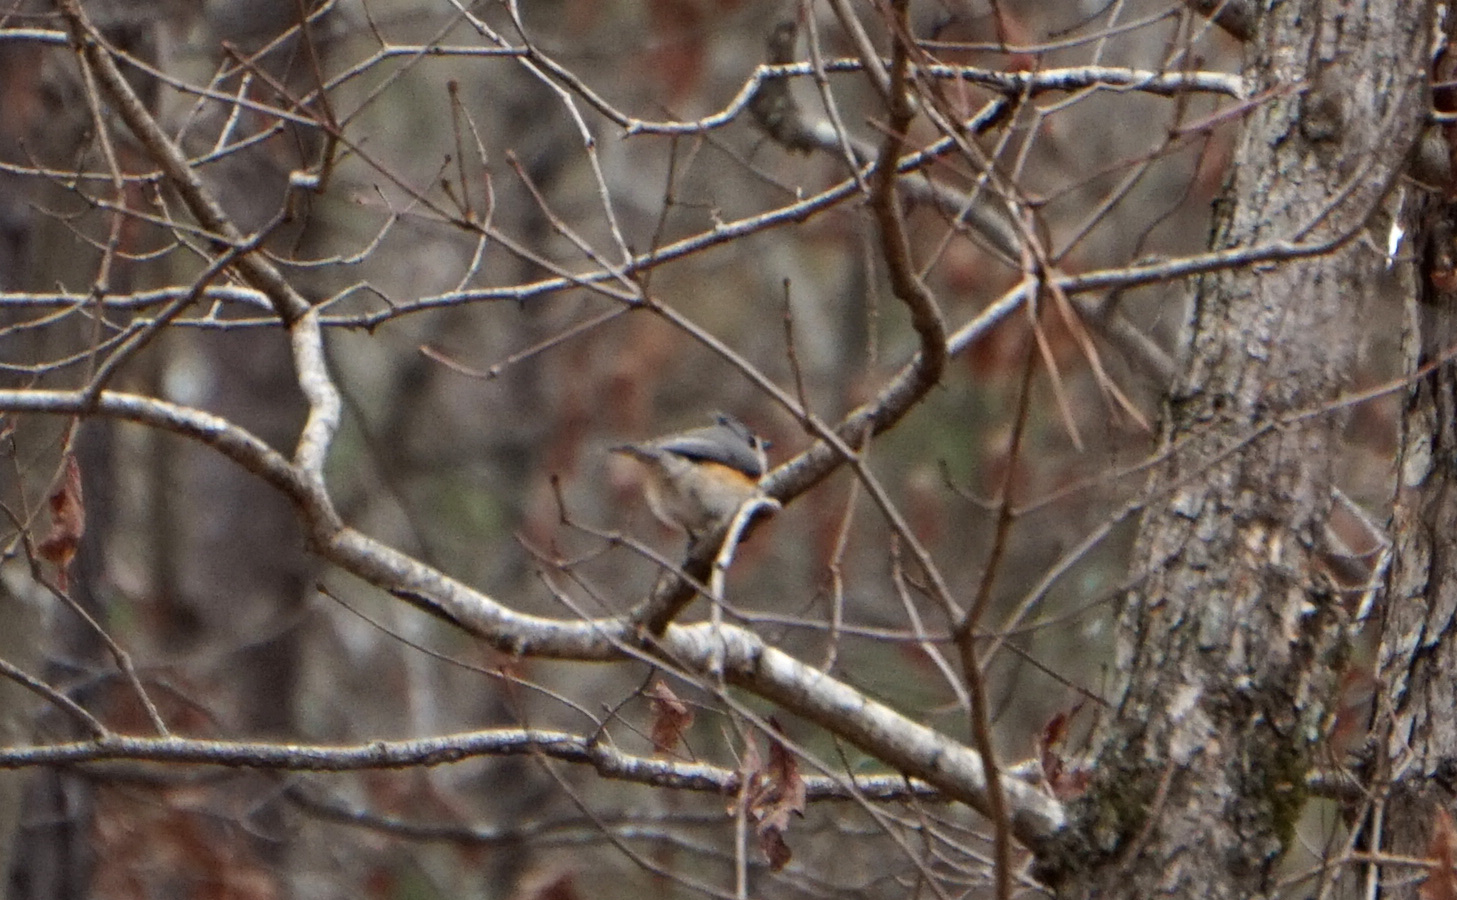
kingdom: Animalia
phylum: Chordata
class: Aves
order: Passeriformes
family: Paridae
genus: Baeolophus
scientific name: Baeolophus bicolor
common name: Tufted titmouse
